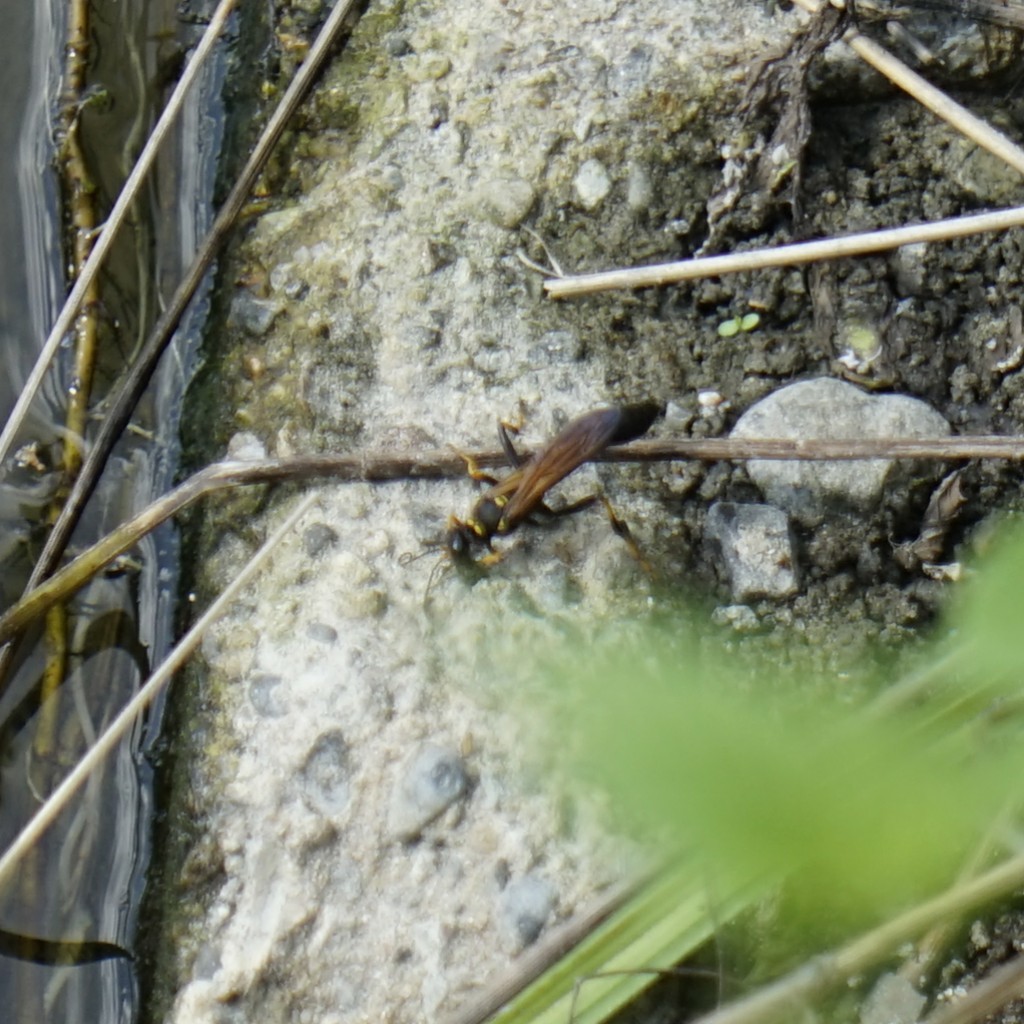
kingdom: Animalia
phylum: Arthropoda
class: Insecta
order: Hymenoptera
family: Sphecidae
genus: Sceliphron
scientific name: Sceliphron
